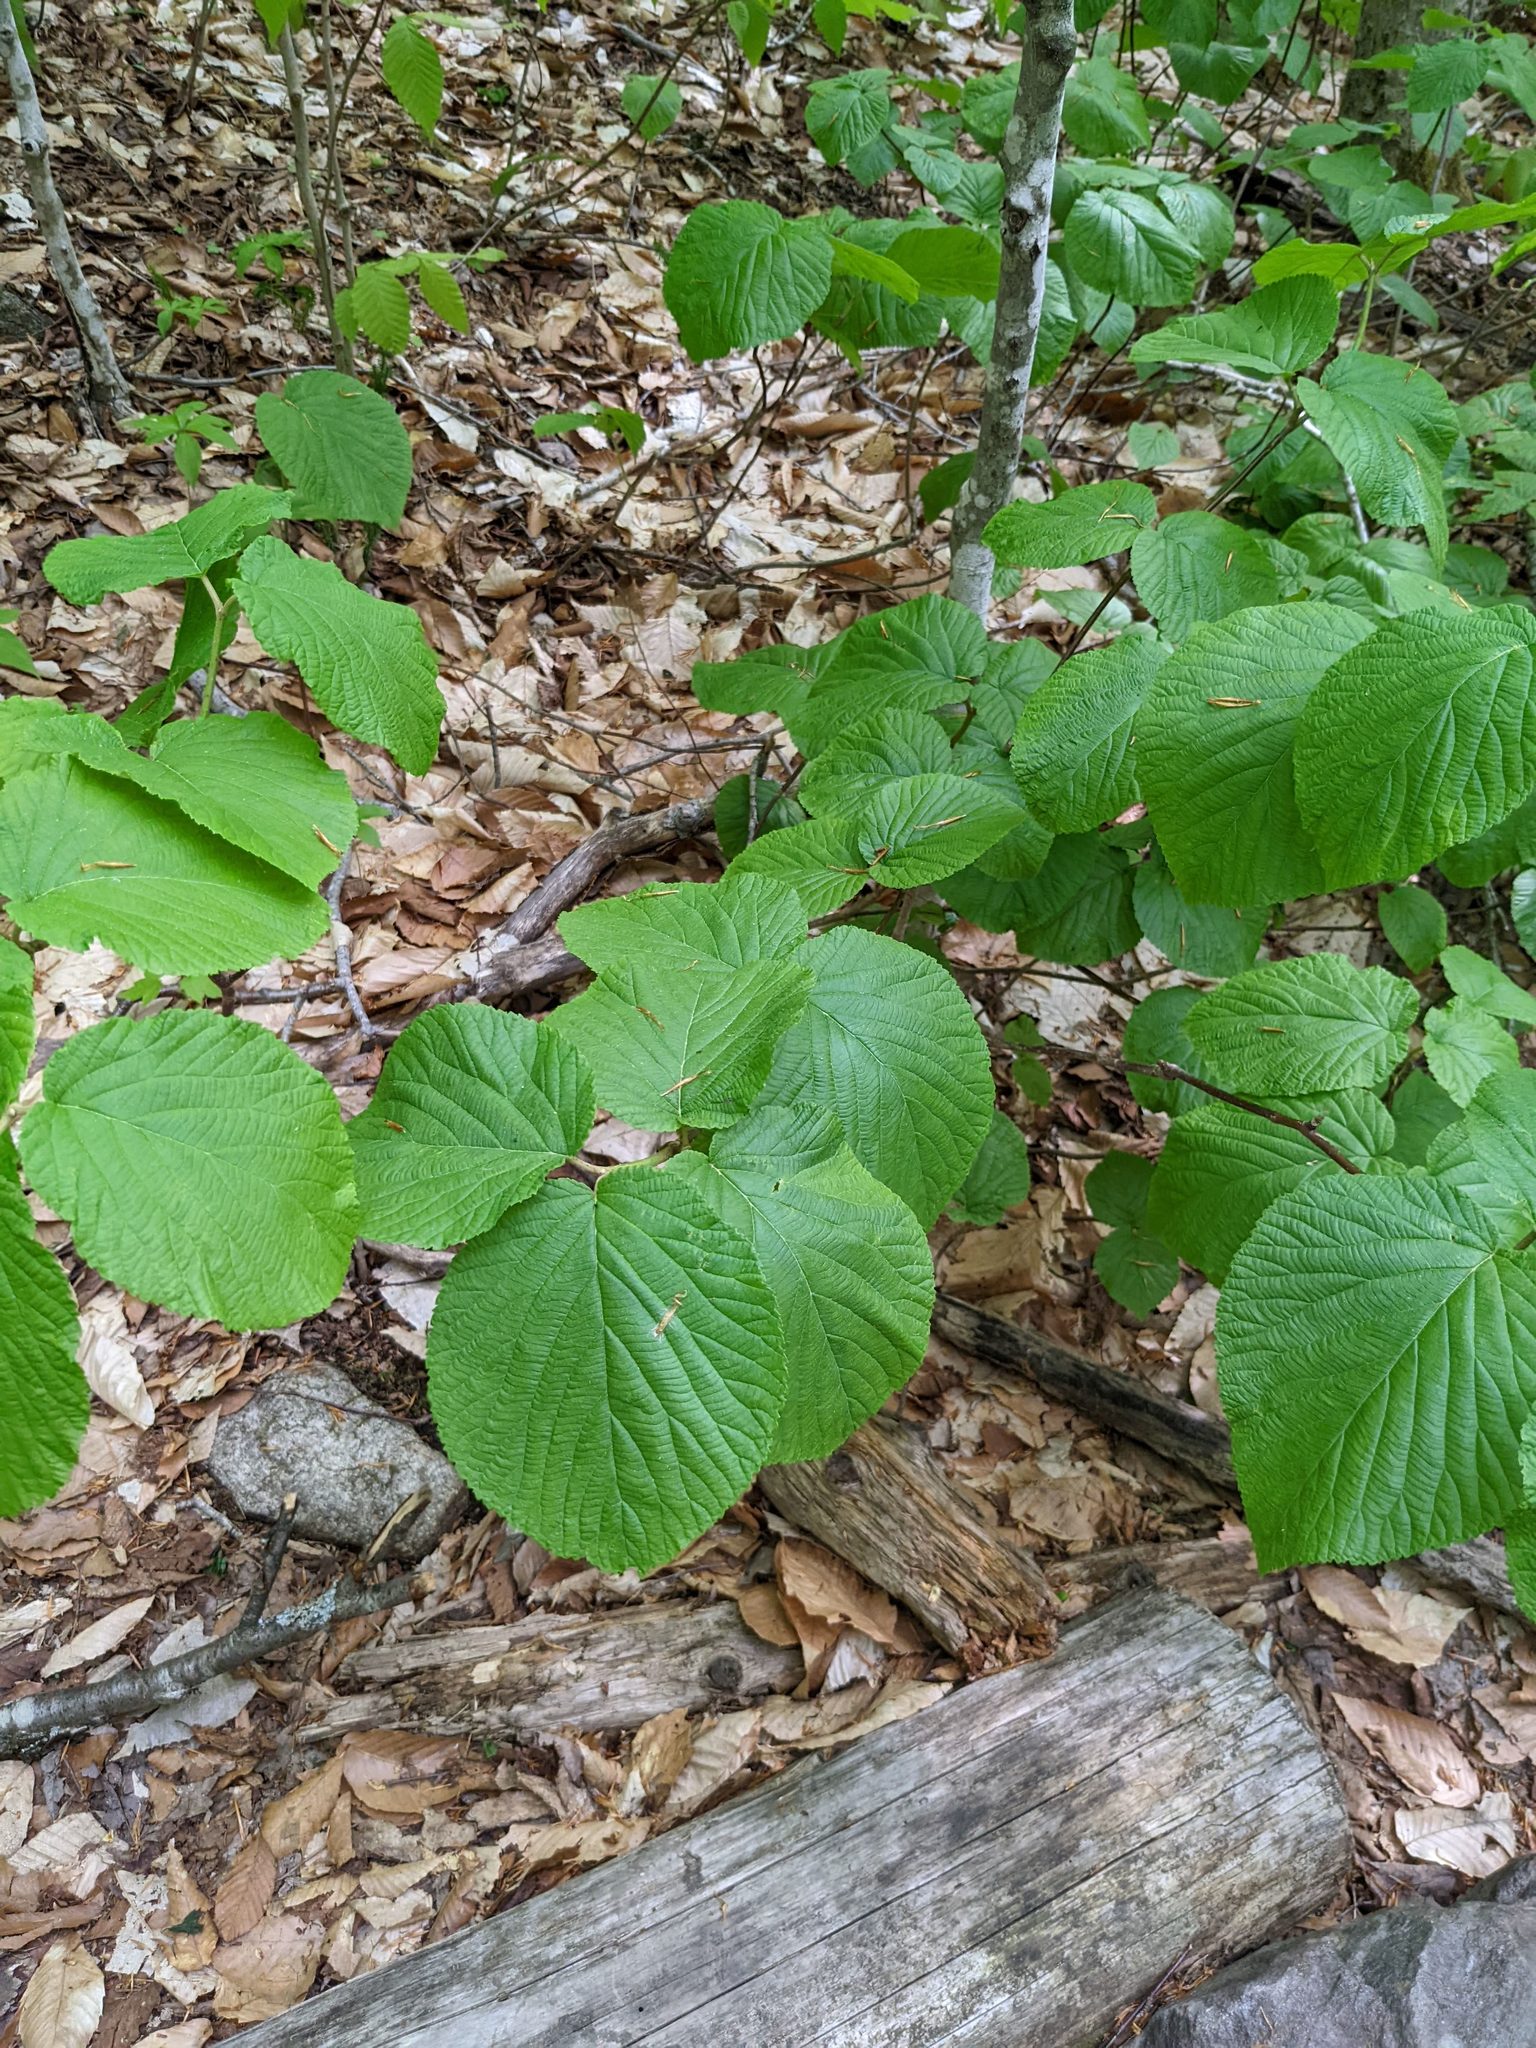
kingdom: Plantae
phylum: Tracheophyta
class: Magnoliopsida
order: Dipsacales
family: Viburnaceae
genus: Viburnum
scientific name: Viburnum lantanoides
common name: Hobblebush
